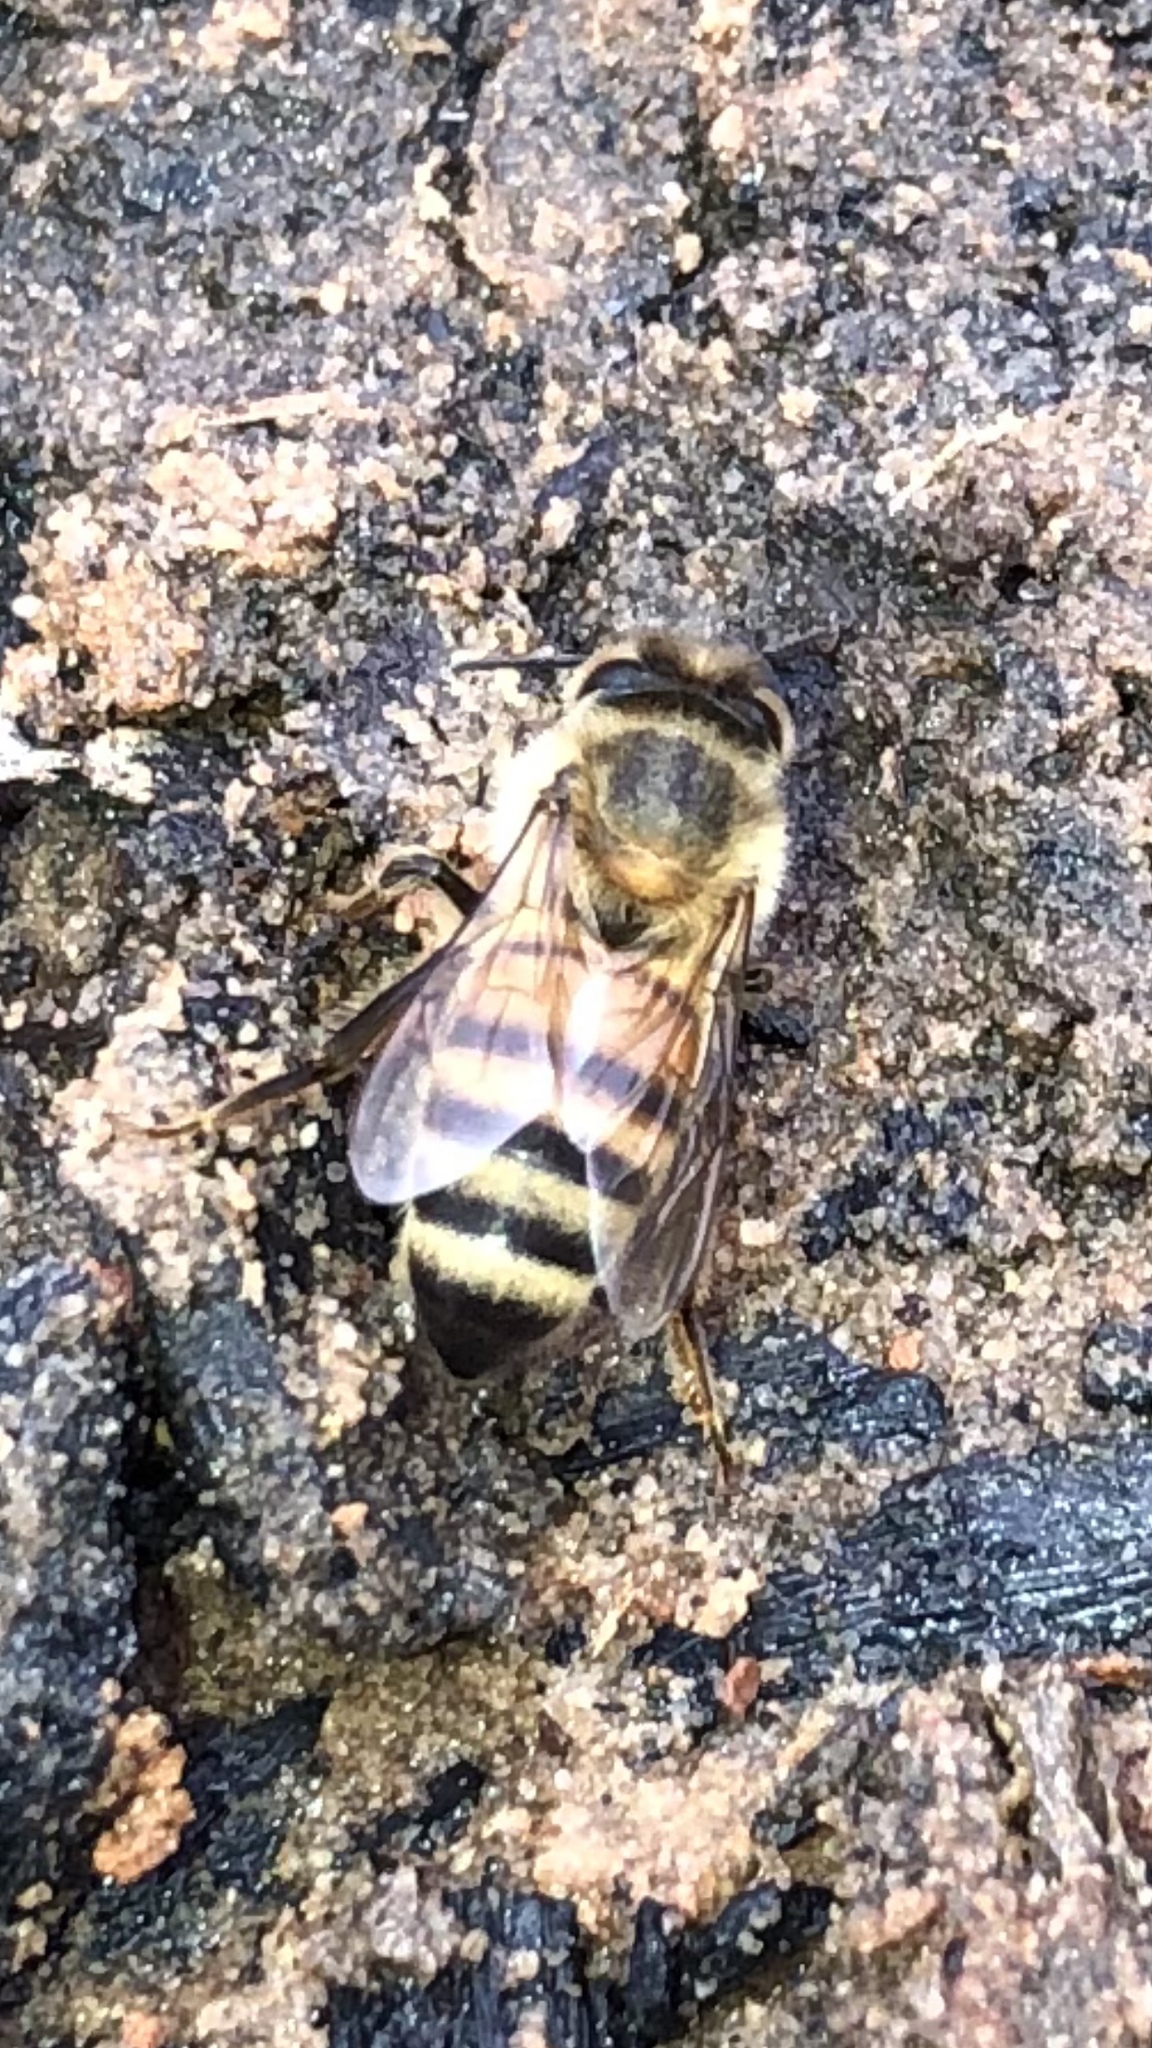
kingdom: Animalia
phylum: Arthropoda
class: Insecta
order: Hymenoptera
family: Apidae
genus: Apis
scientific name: Apis mellifera
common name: Honey bee
